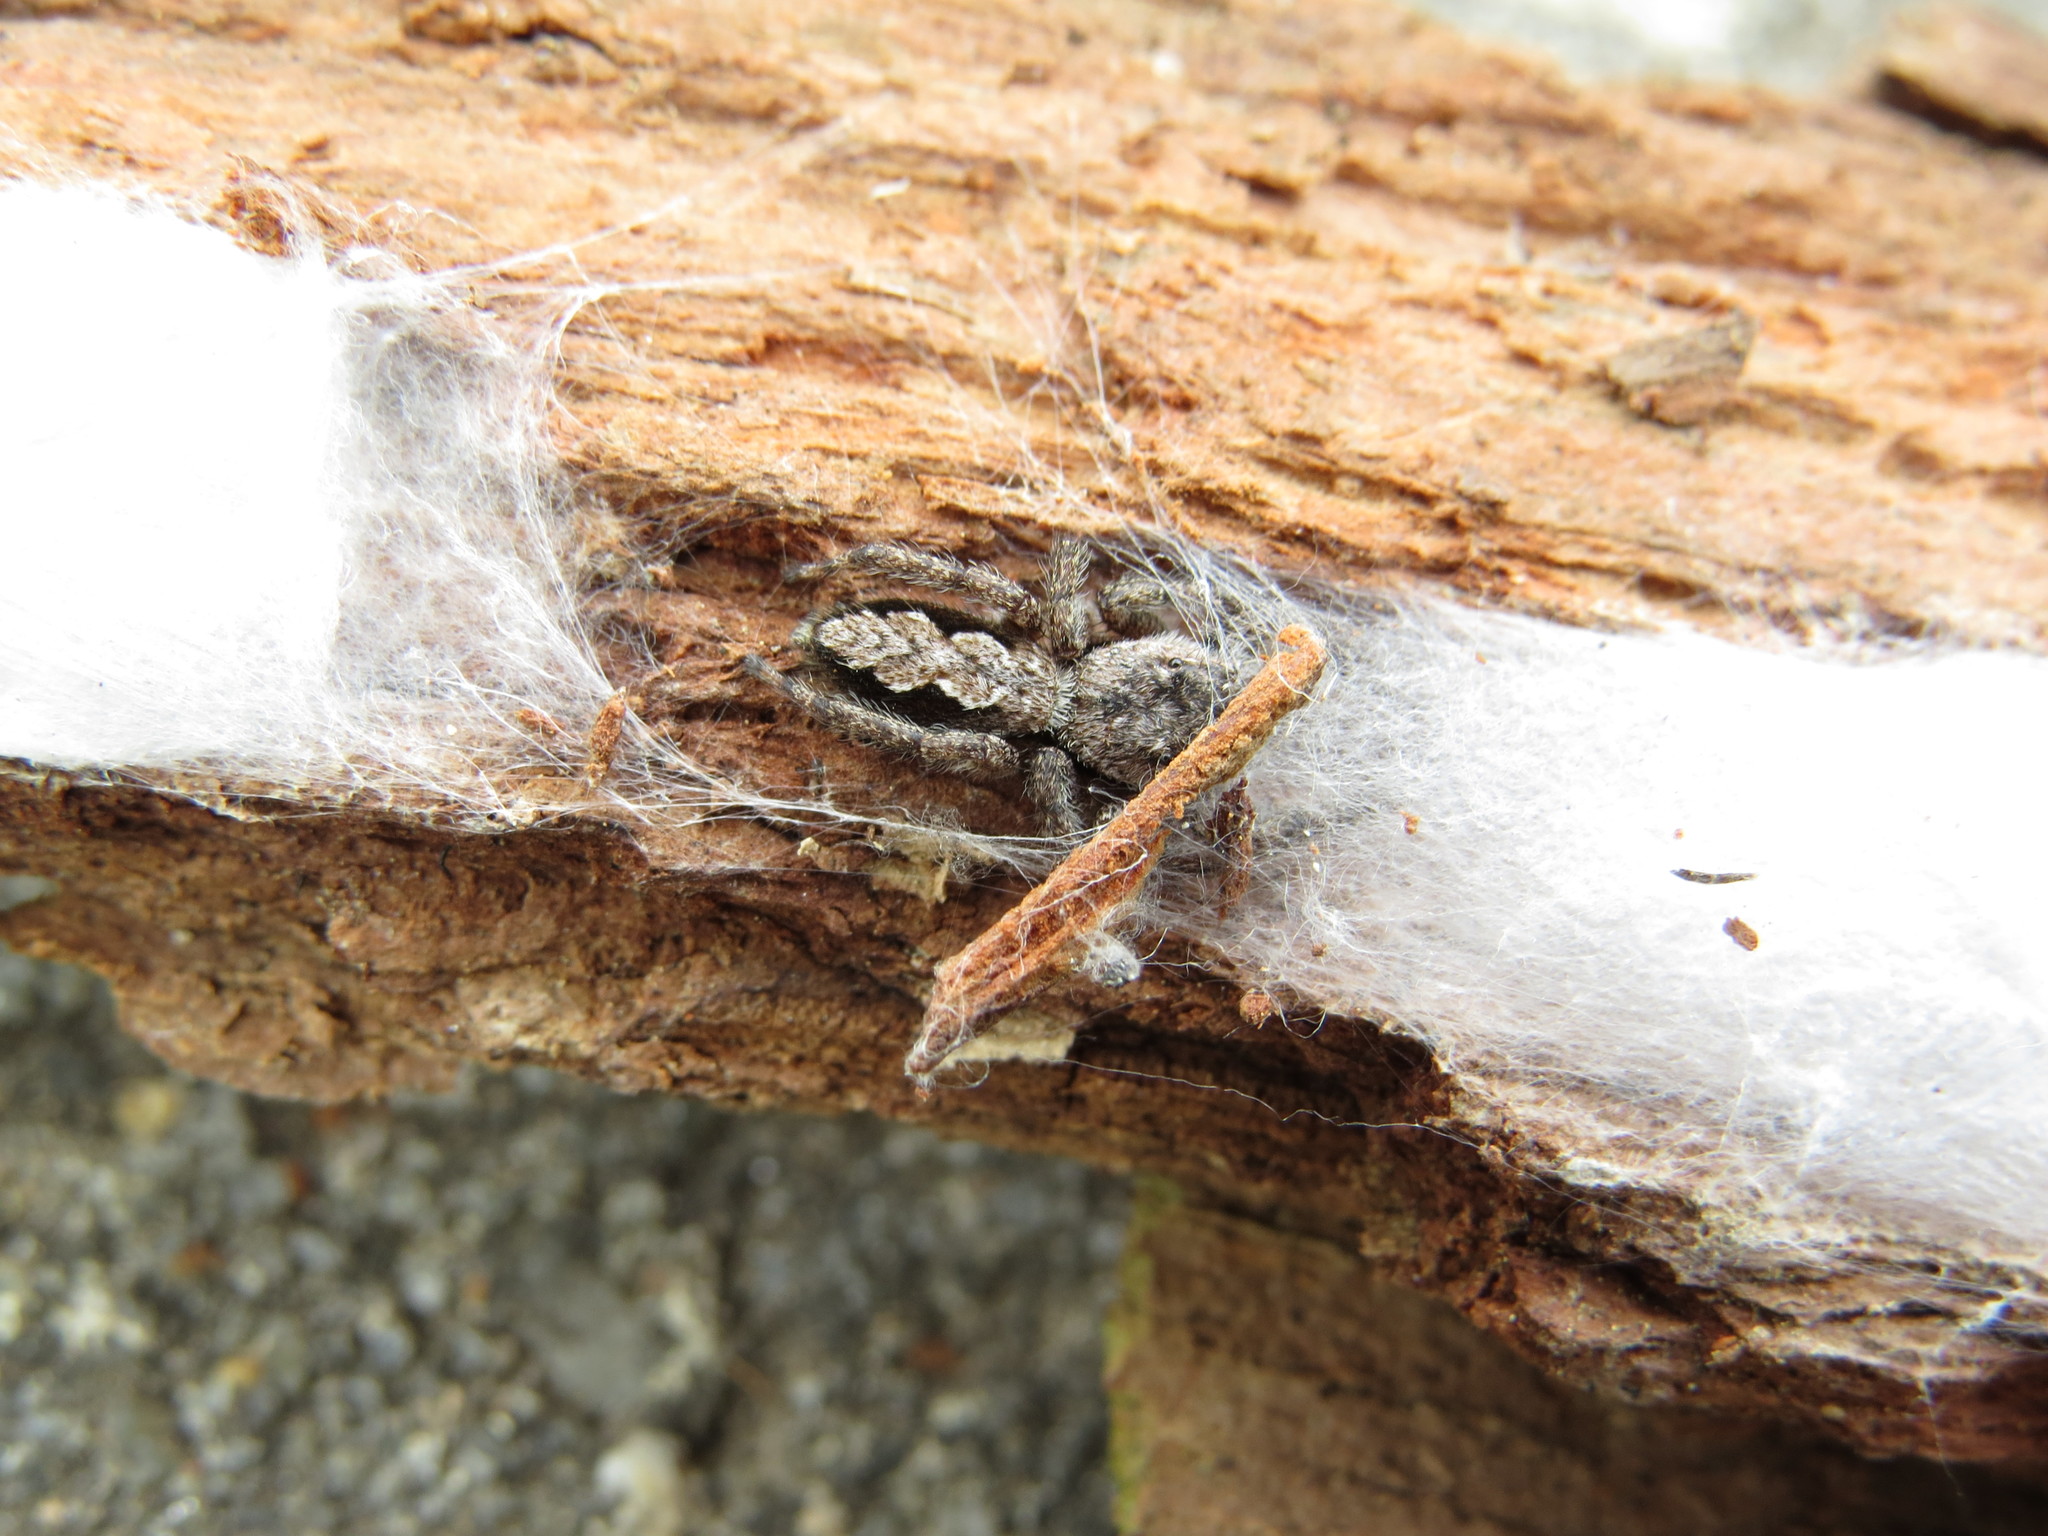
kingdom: Animalia
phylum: Arthropoda
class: Arachnida
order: Araneae
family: Salticidae
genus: Platycryptus
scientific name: Platycryptus undatus
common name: Tan jumping spider
